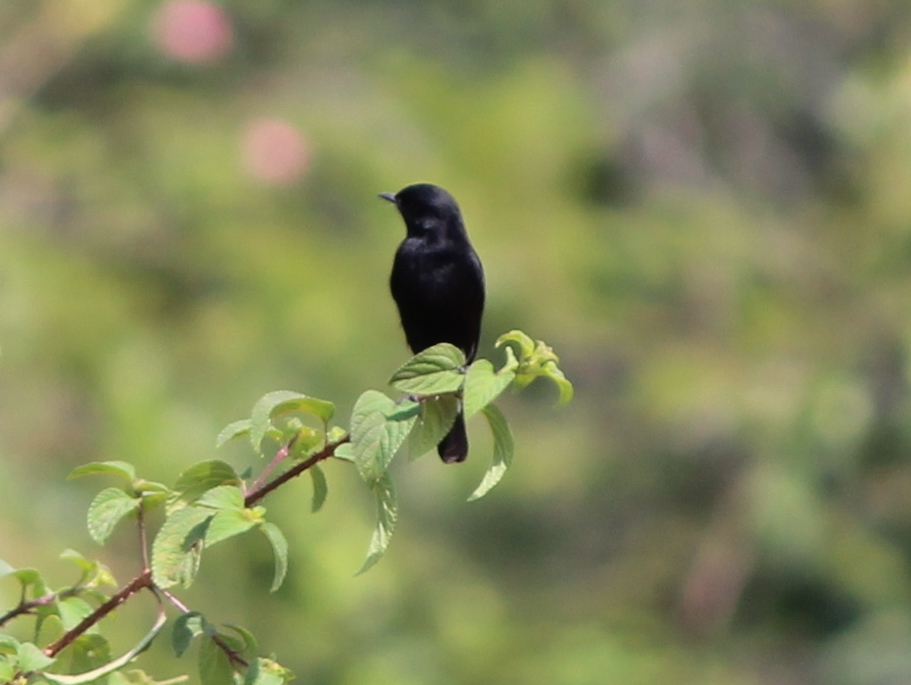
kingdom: Animalia
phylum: Chordata
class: Aves
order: Passeriformes
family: Muscicapidae
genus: Saxicola
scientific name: Saxicola caprata
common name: Pied bush chat
